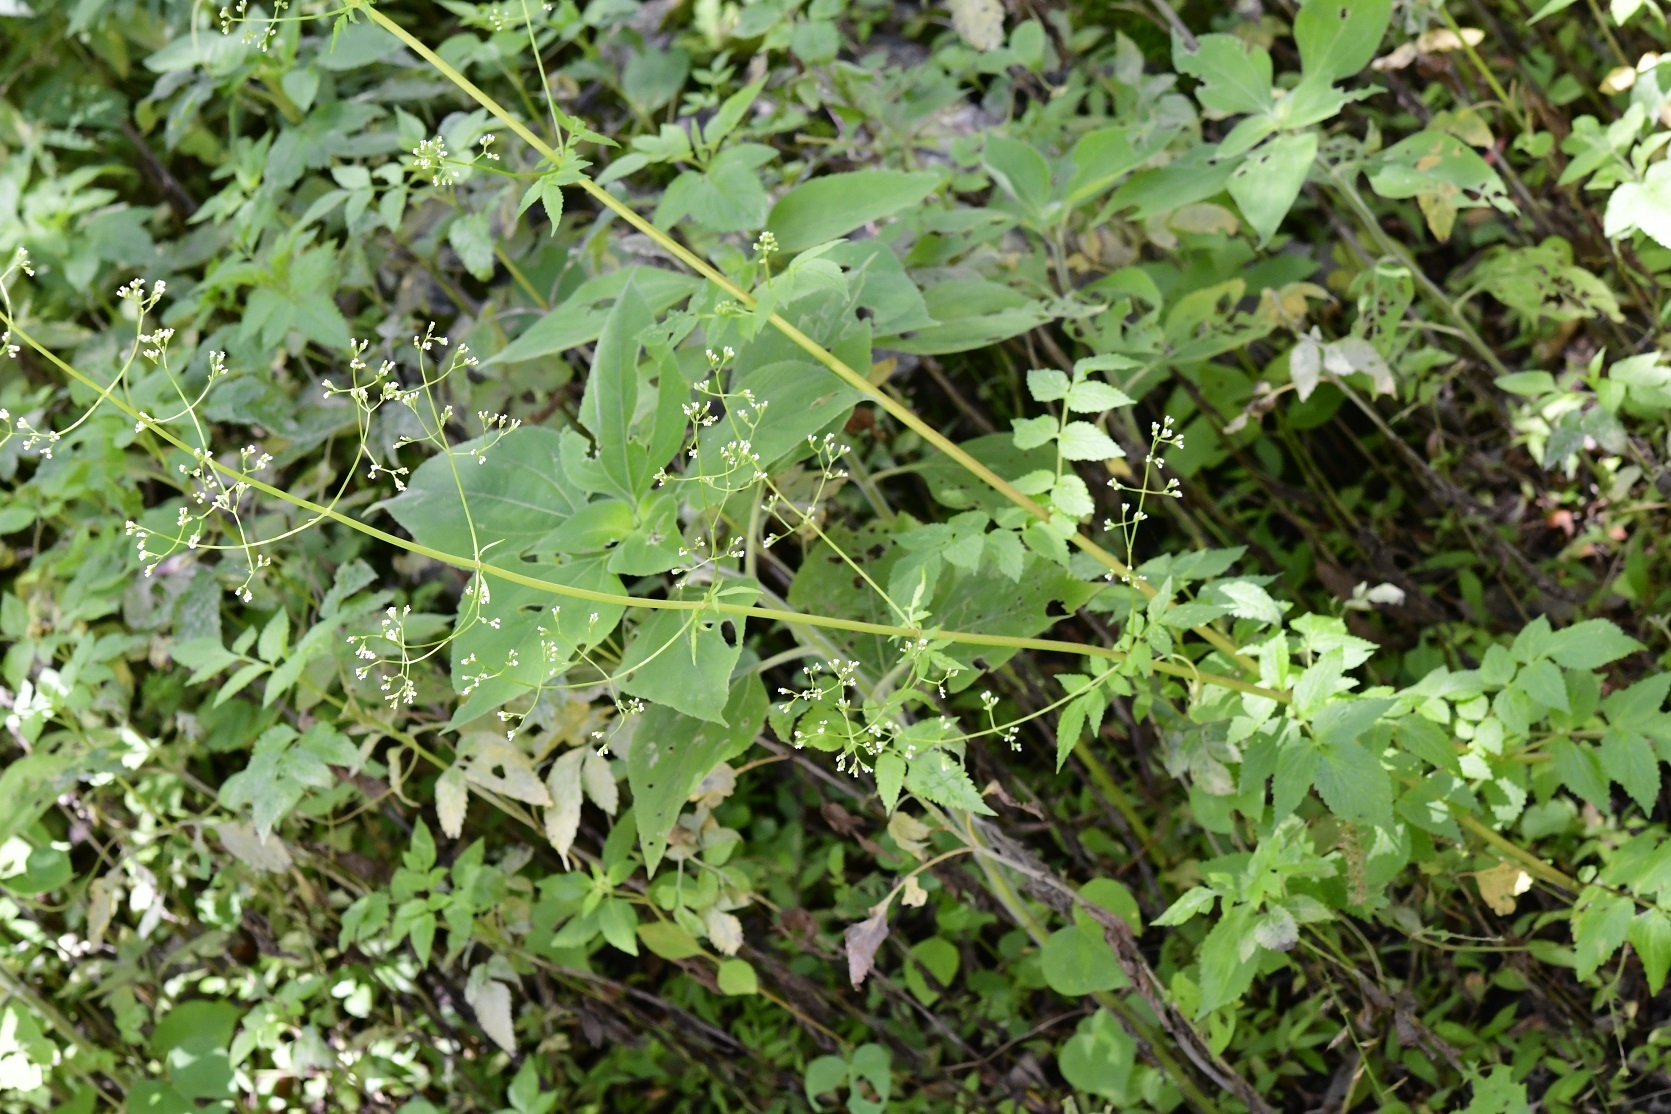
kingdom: Plantae
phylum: Tracheophyta
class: Magnoliopsida
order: Dipsacales
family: Caprifoliaceae
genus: Valeriana
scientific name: Valeriana chiapensis
